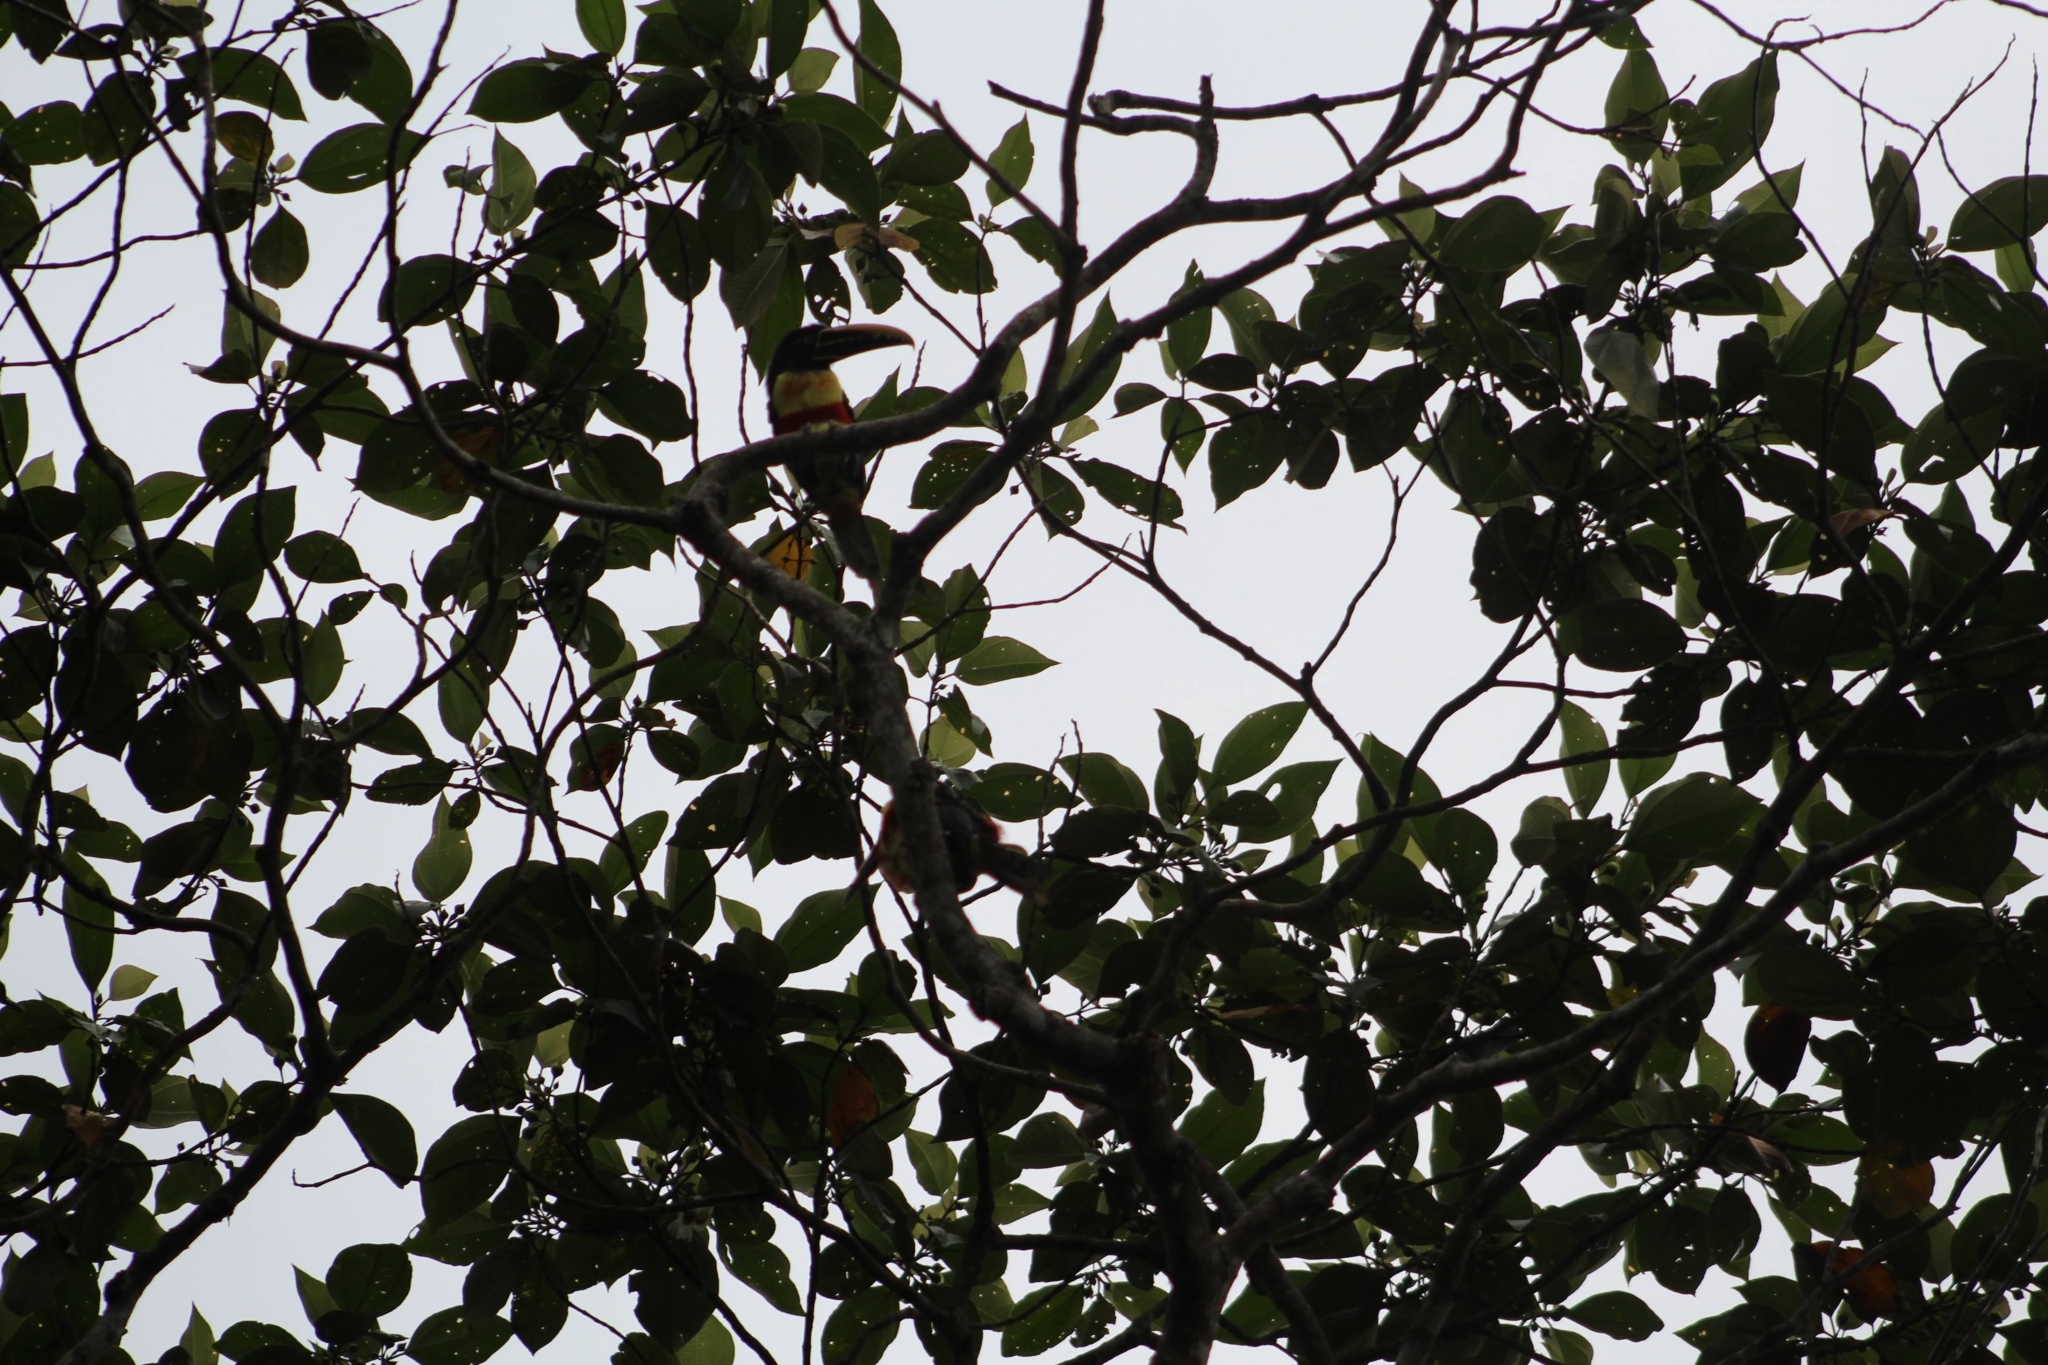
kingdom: Animalia
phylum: Chordata
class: Aves
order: Piciformes
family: Ramphastidae
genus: Pteroglossus
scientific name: Pteroglossus castanotis
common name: Chestnut-eared aracari
